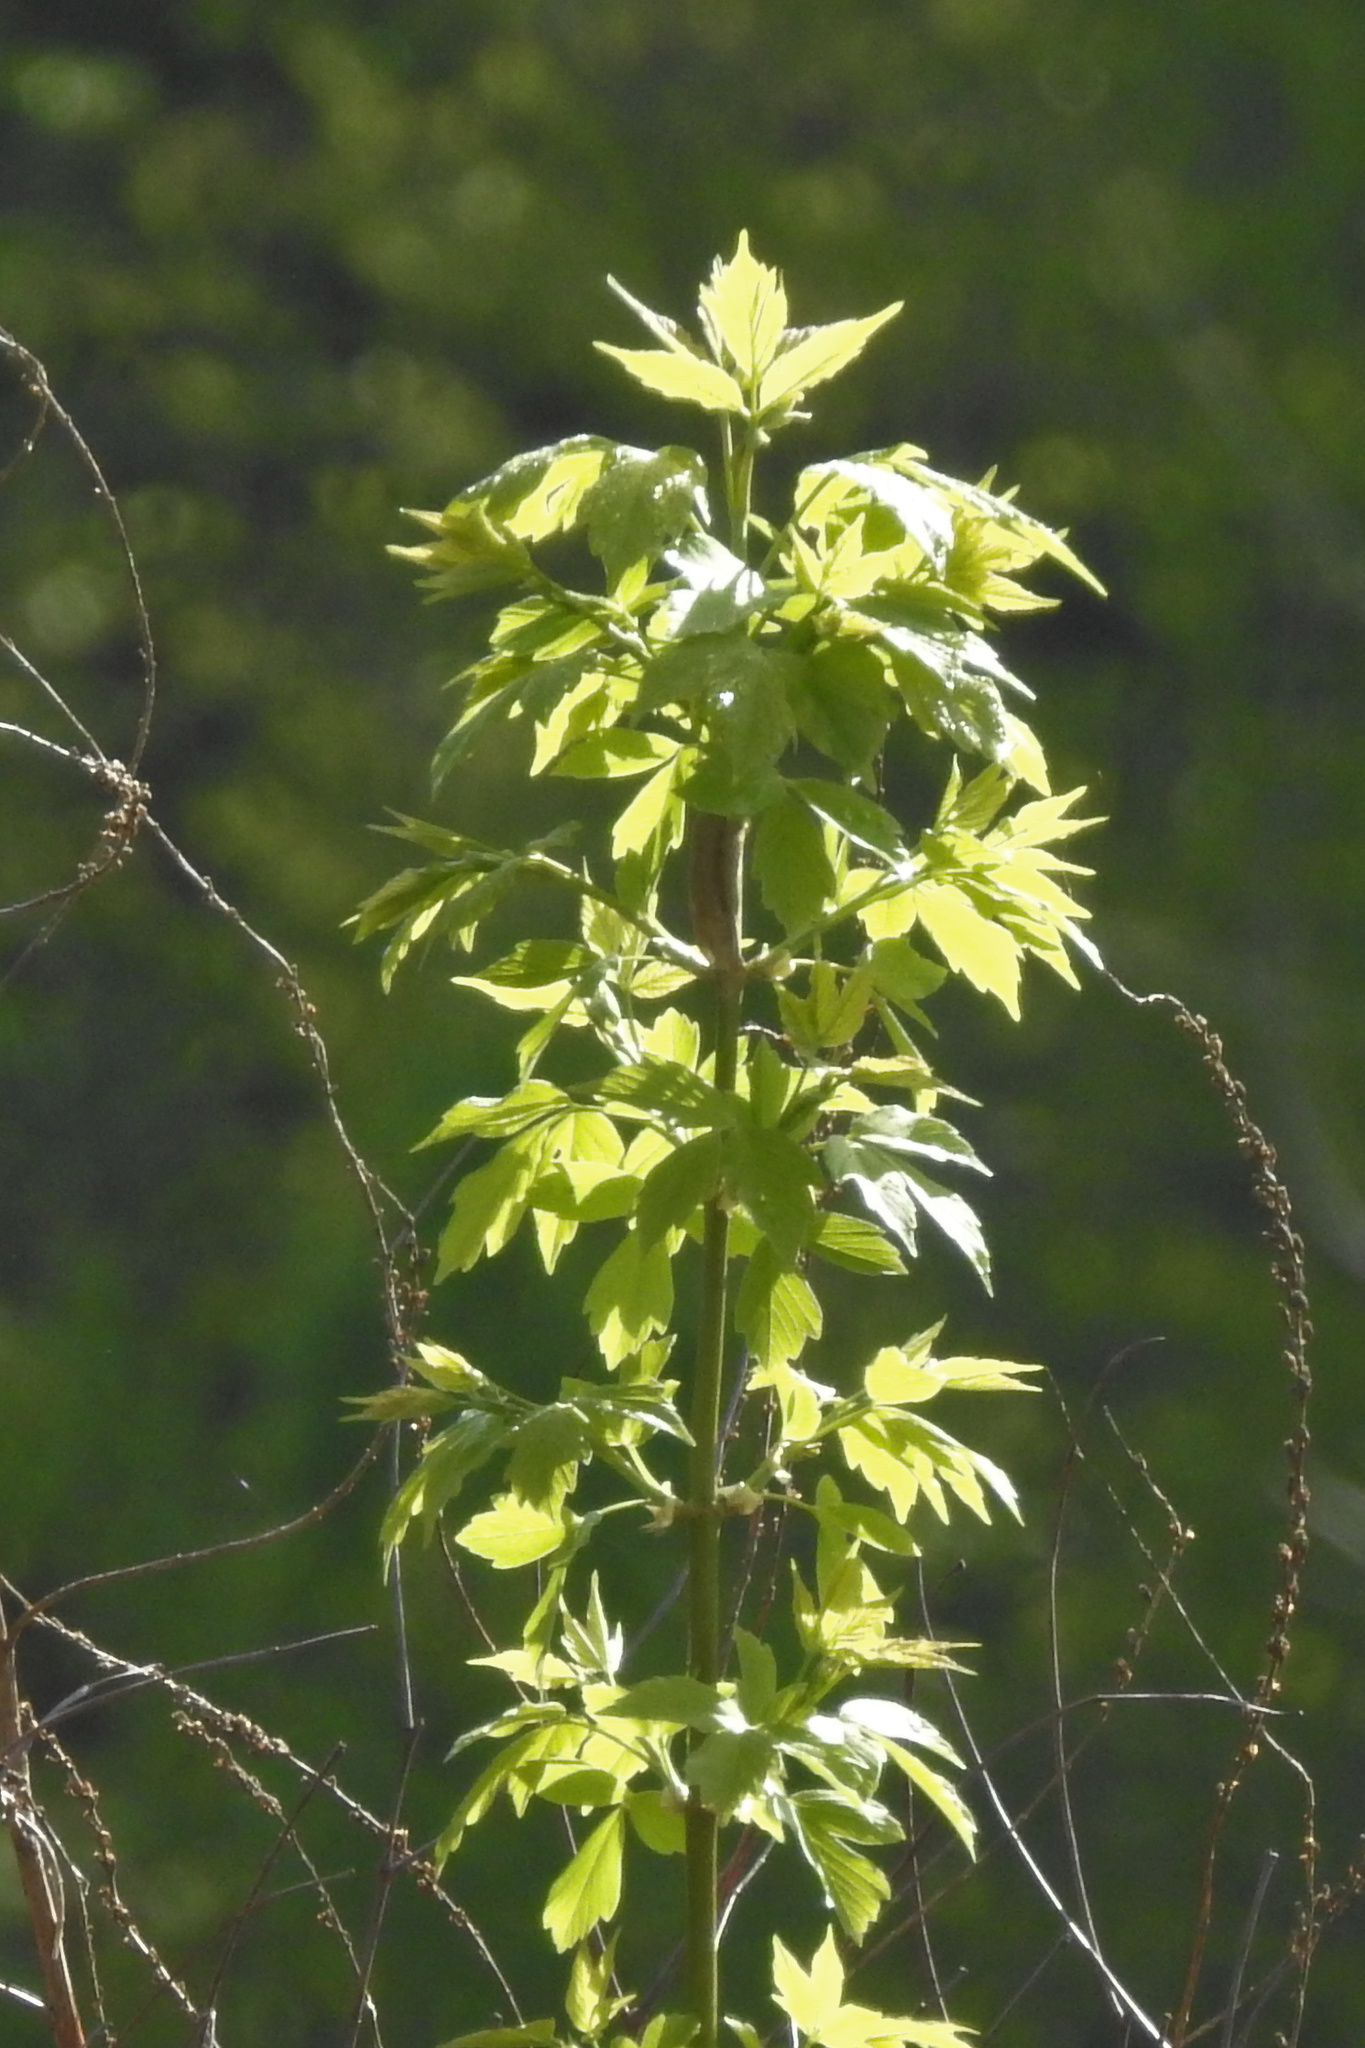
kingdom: Plantae
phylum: Tracheophyta
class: Magnoliopsida
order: Sapindales
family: Sapindaceae
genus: Acer
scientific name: Acer negundo
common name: Ashleaf maple
